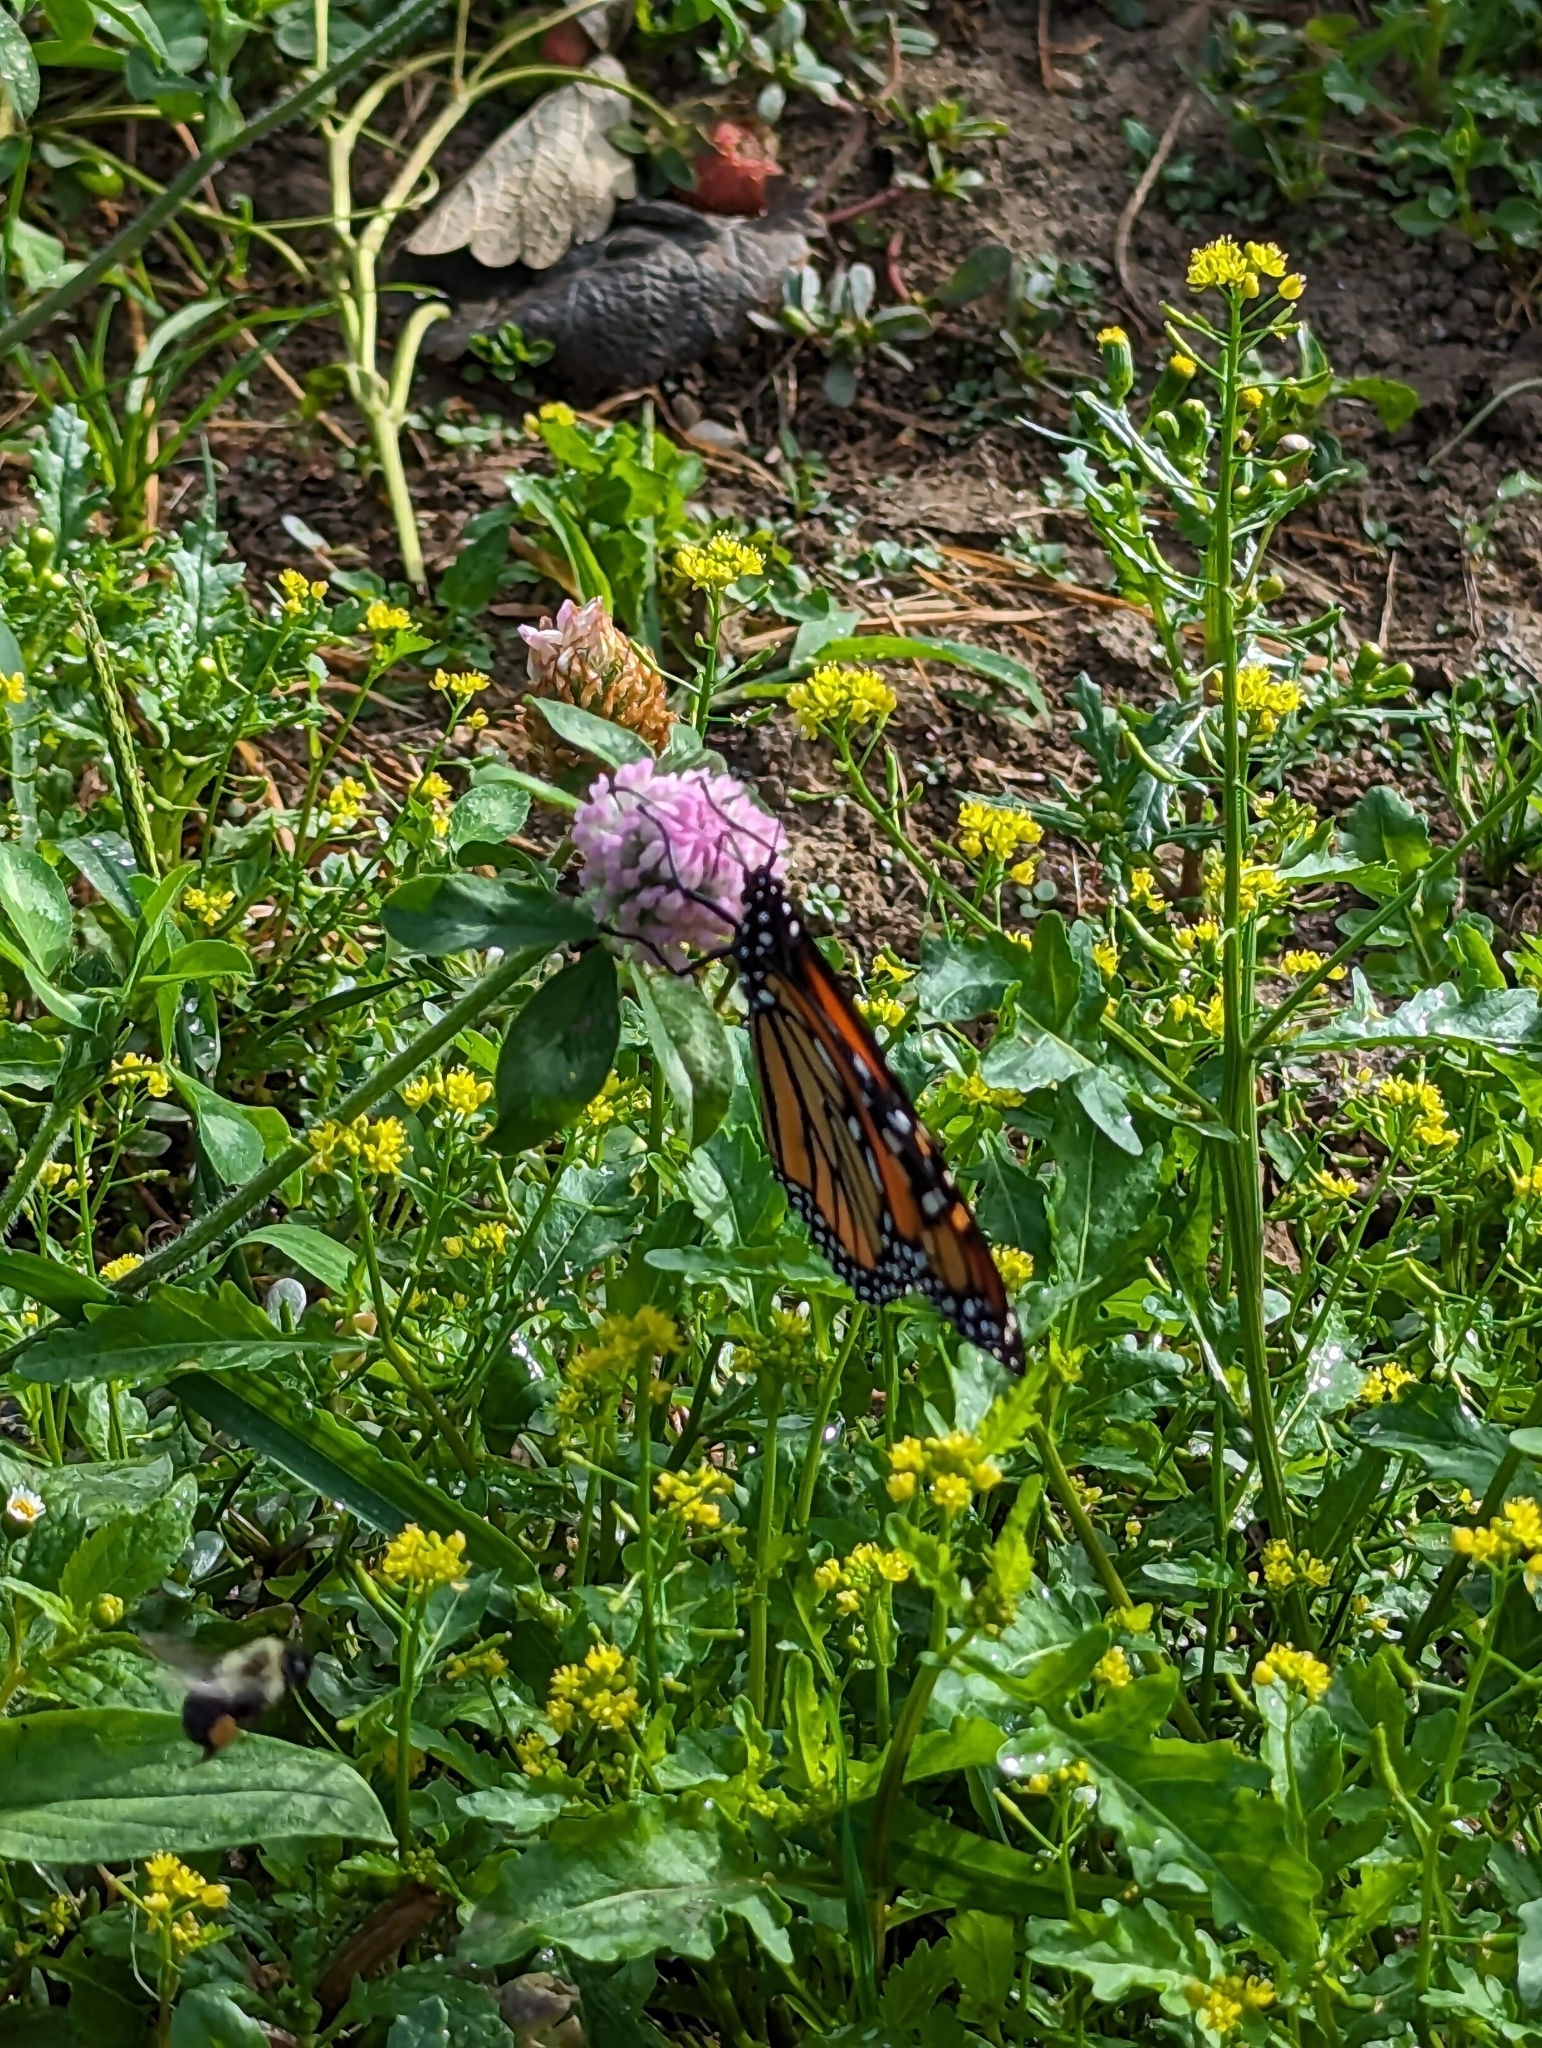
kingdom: Animalia
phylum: Arthropoda
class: Insecta
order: Lepidoptera
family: Nymphalidae
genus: Danaus
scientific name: Danaus plexippus
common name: Monarch
